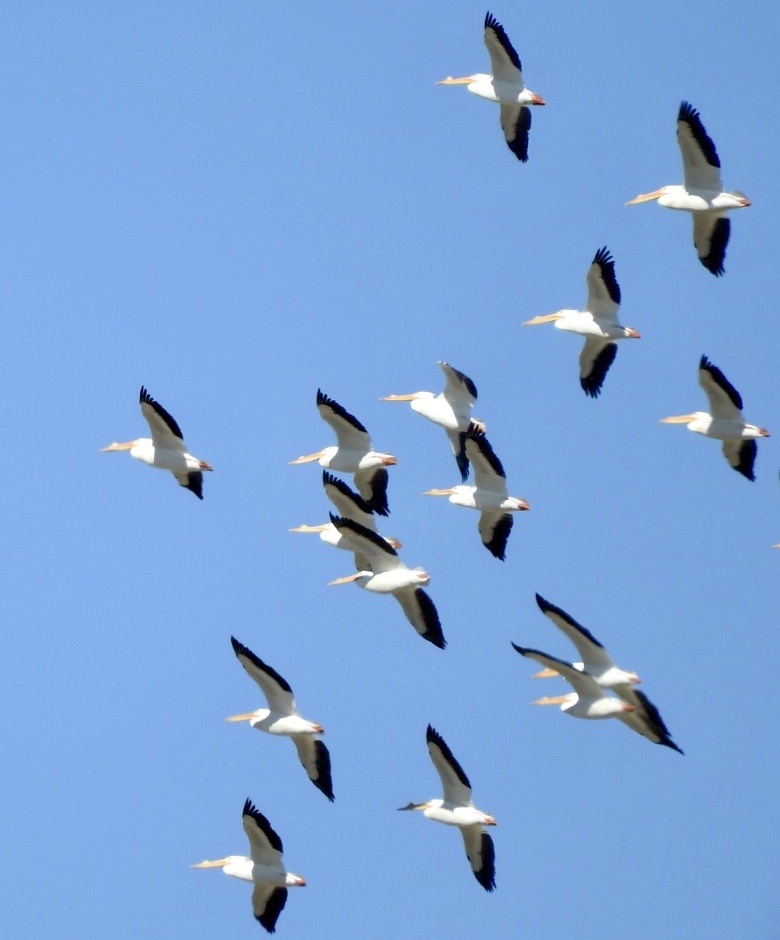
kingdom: Animalia
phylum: Chordata
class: Aves
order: Pelecaniformes
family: Pelecanidae
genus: Pelecanus
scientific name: Pelecanus erythrorhynchos
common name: American white pelican
